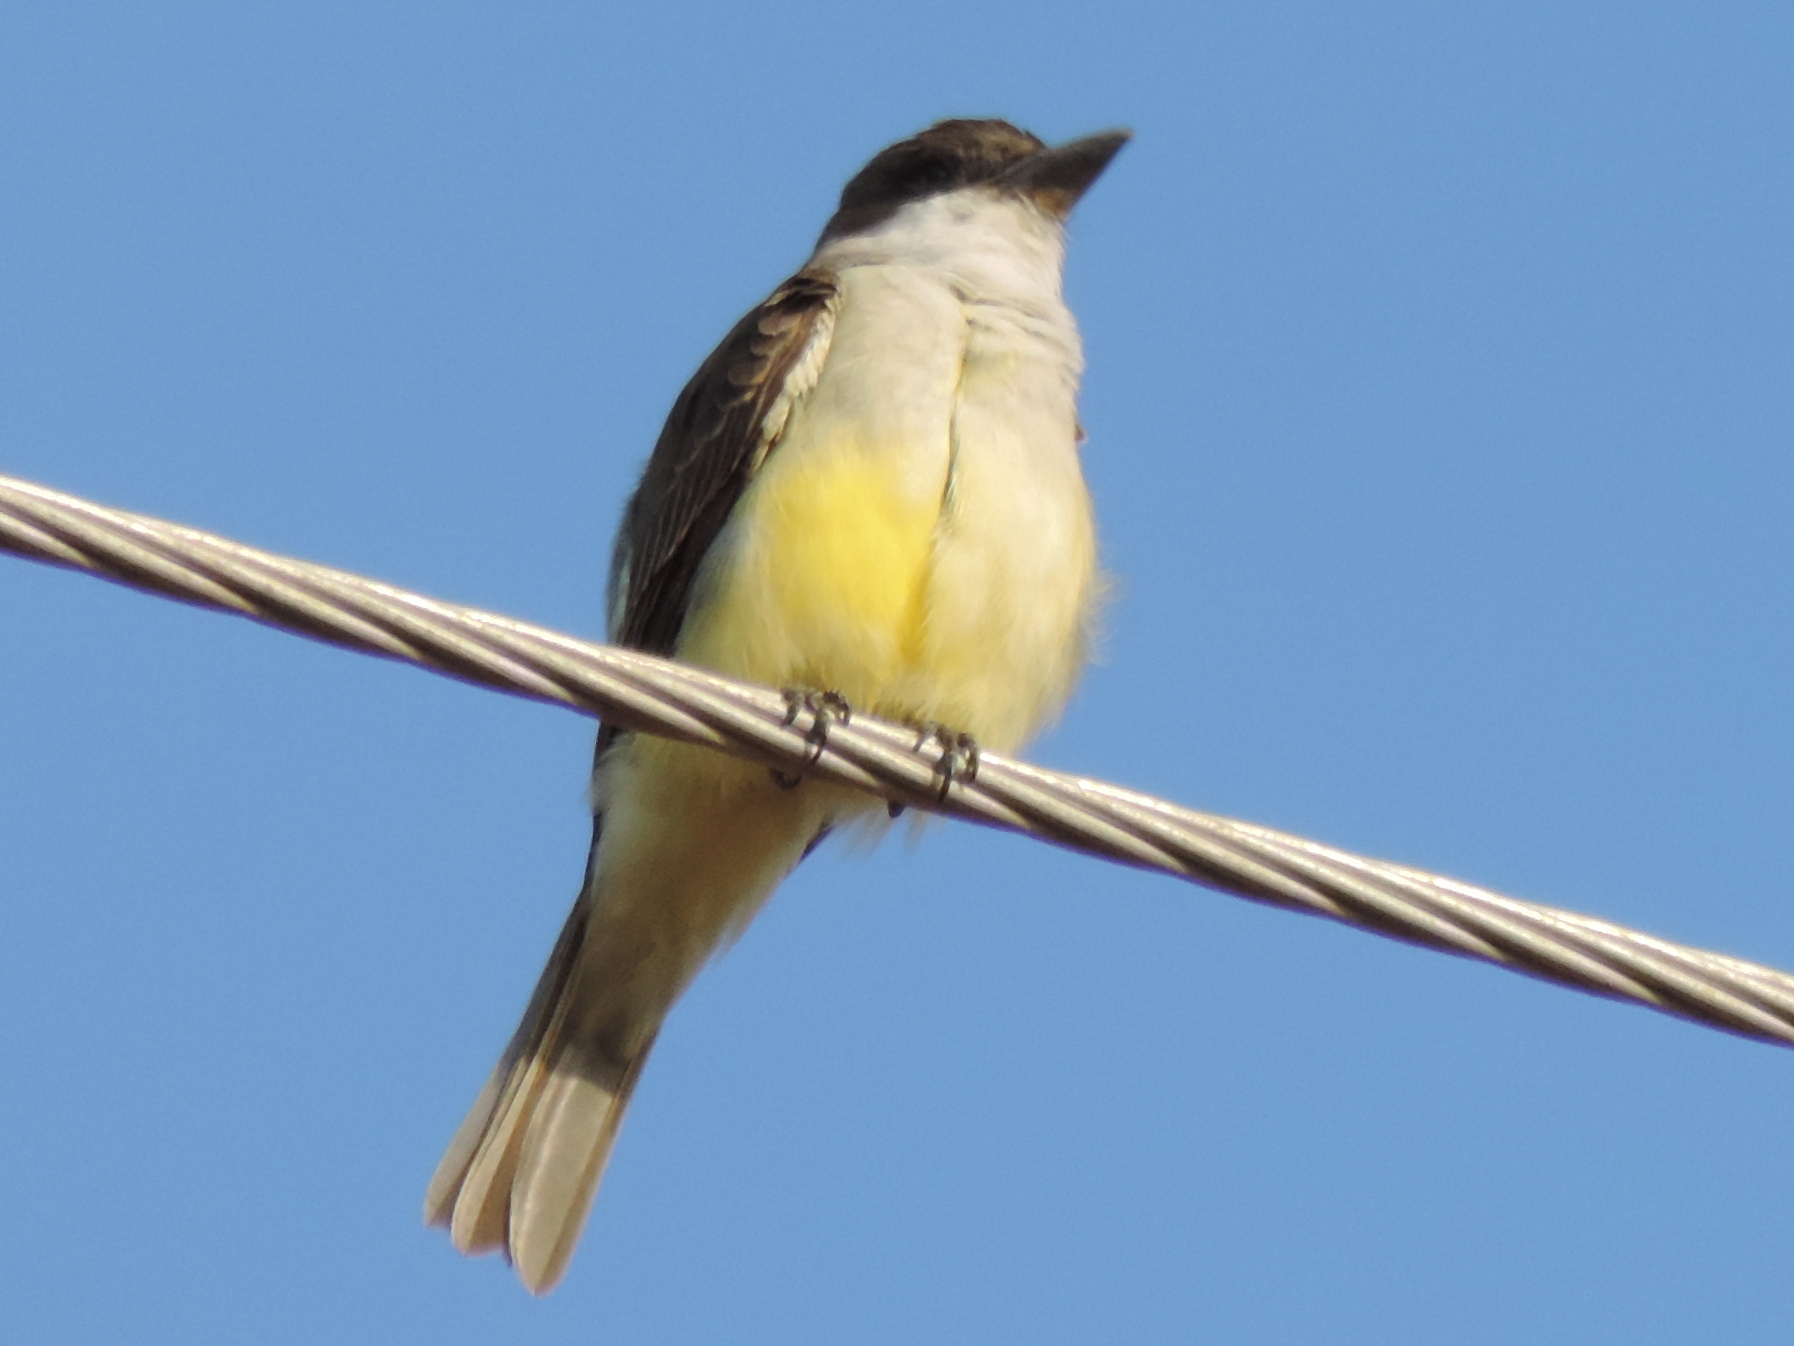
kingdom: Animalia
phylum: Chordata
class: Aves
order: Passeriformes
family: Tyrannidae
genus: Tyrannus
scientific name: Tyrannus crassirostris
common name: Thick-billed kingbird
